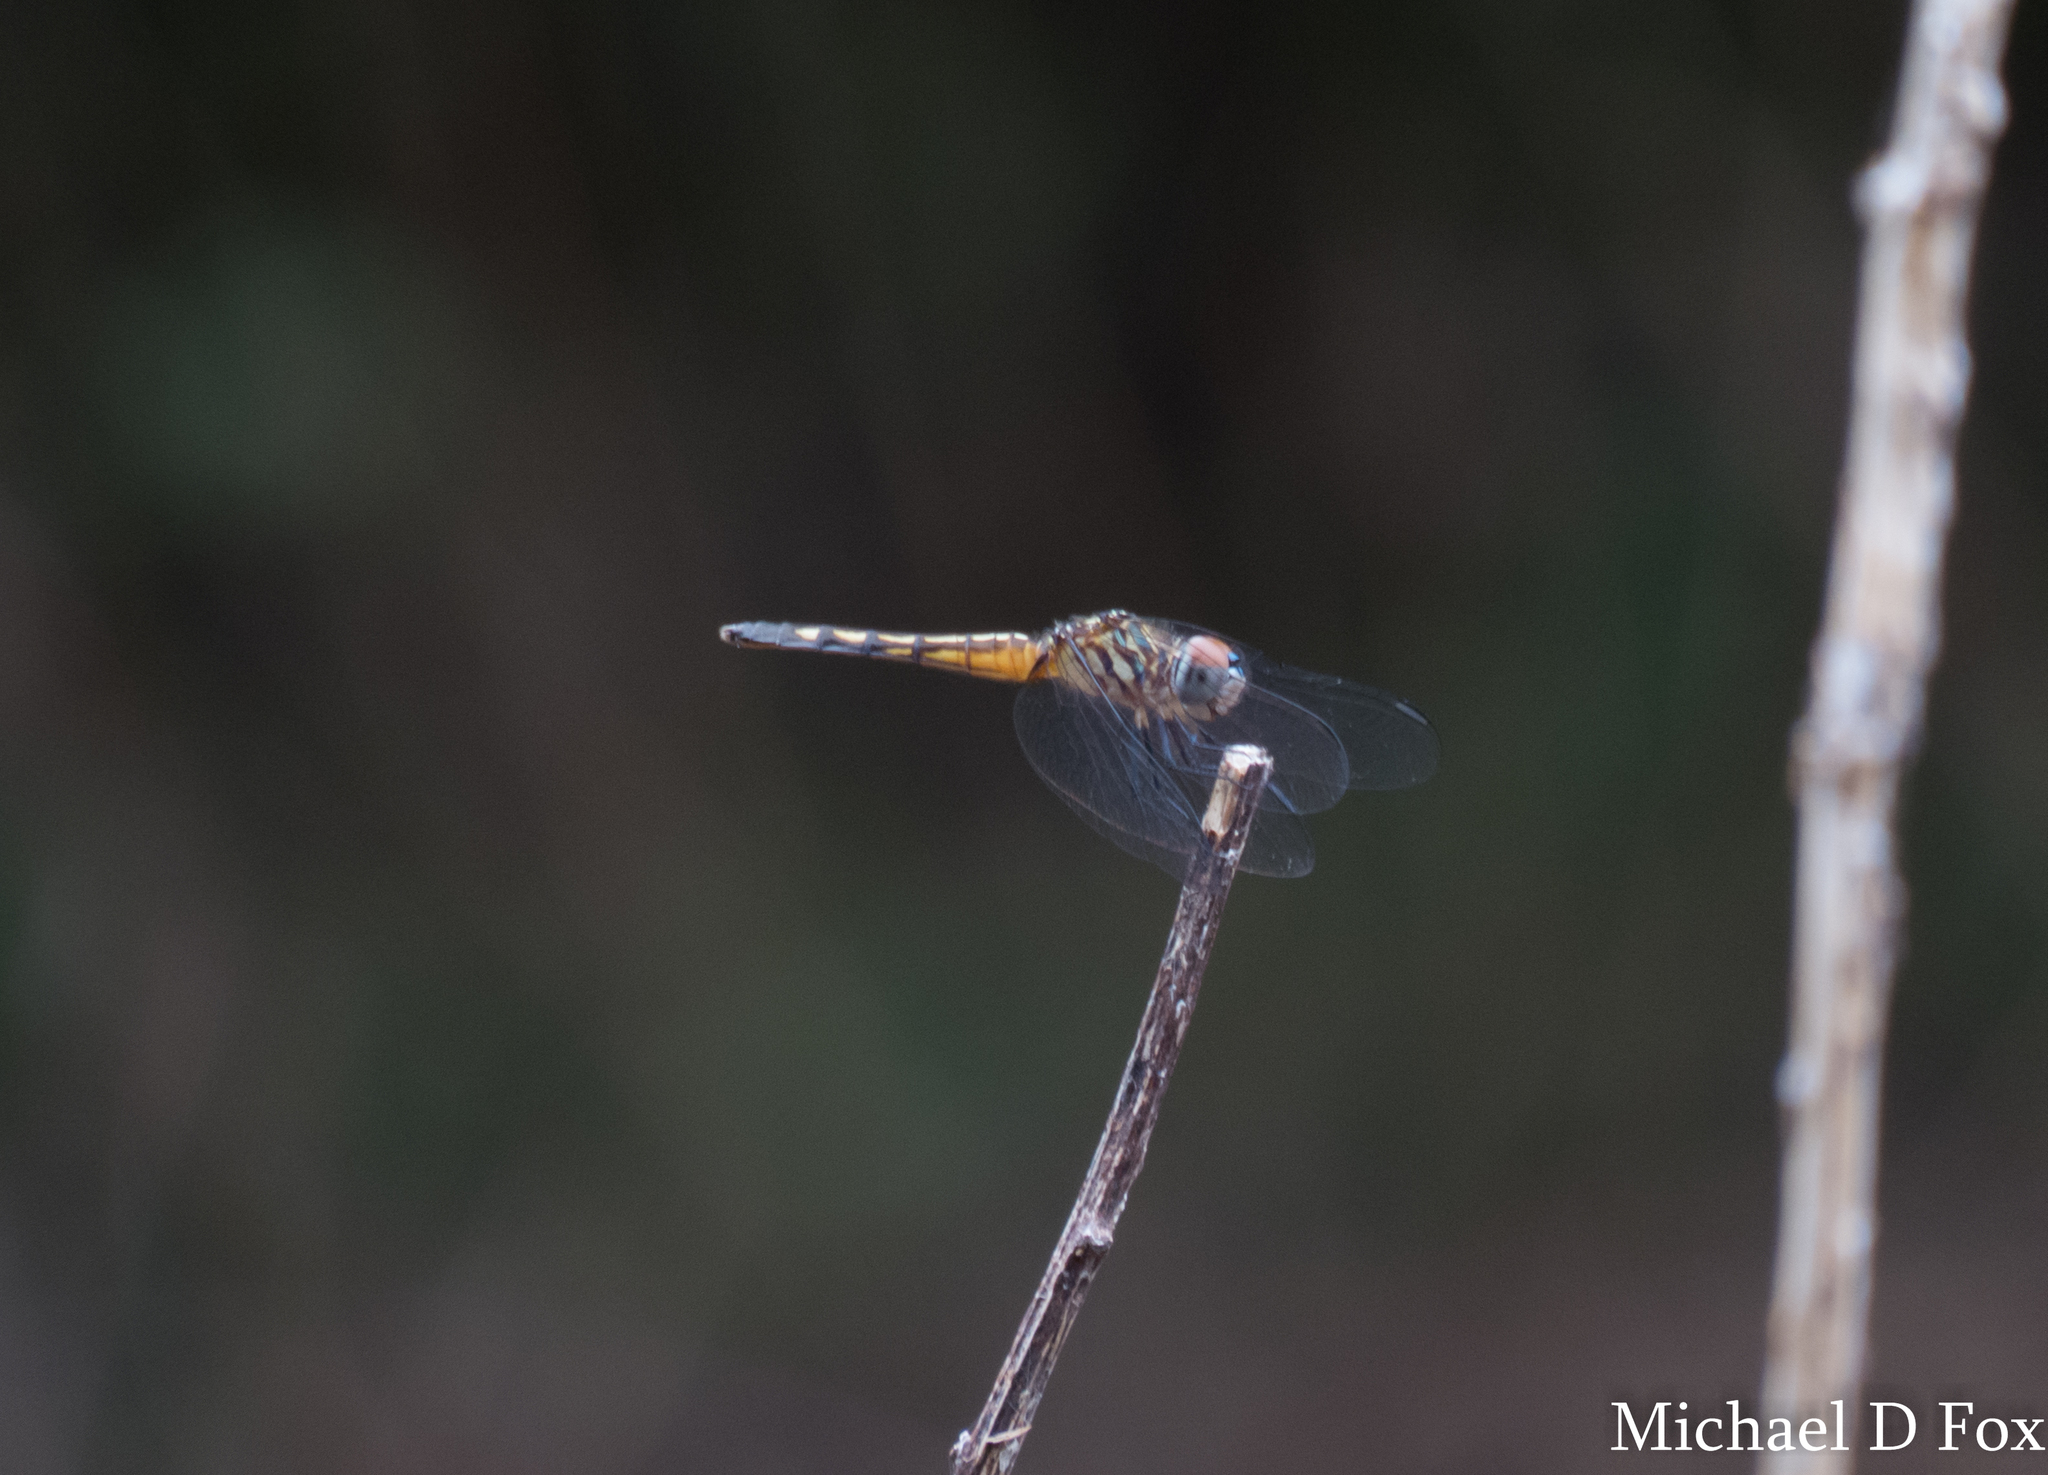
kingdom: Animalia
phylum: Arthropoda
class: Insecta
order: Odonata
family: Libellulidae
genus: Pachydiplax
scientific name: Pachydiplax longipennis
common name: Blue dasher
